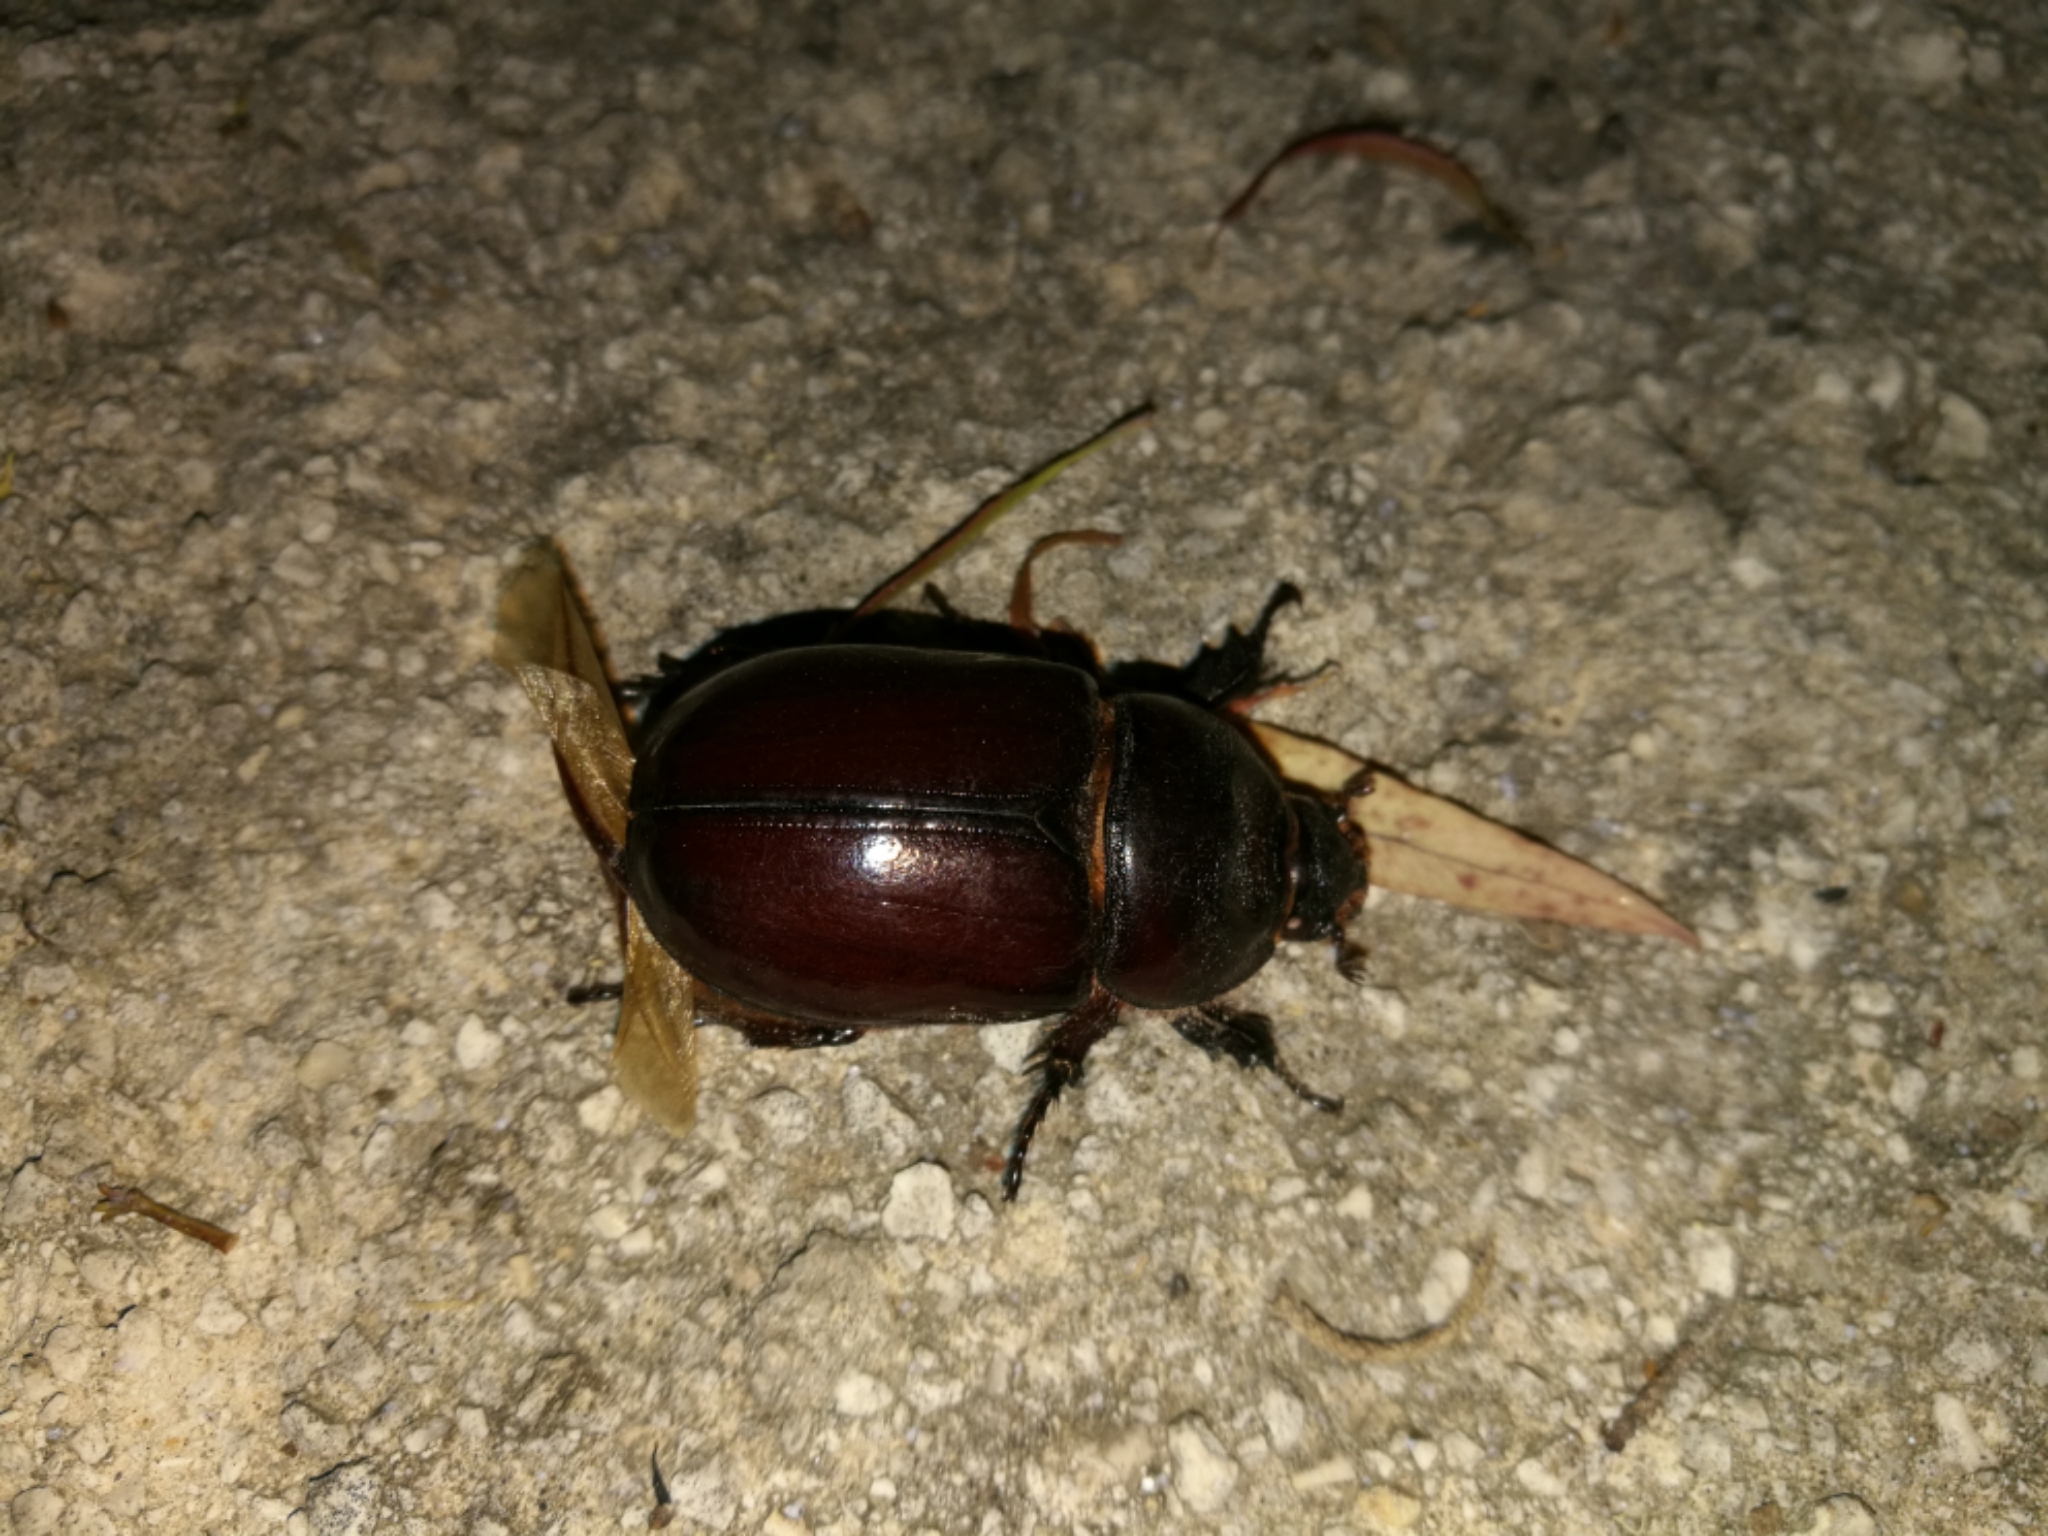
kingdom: Animalia
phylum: Arthropoda
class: Insecta
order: Coleoptera
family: Scarabaeidae
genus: Oryctes
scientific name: Oryctes nasicornis
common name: European rhinoceros beetle
